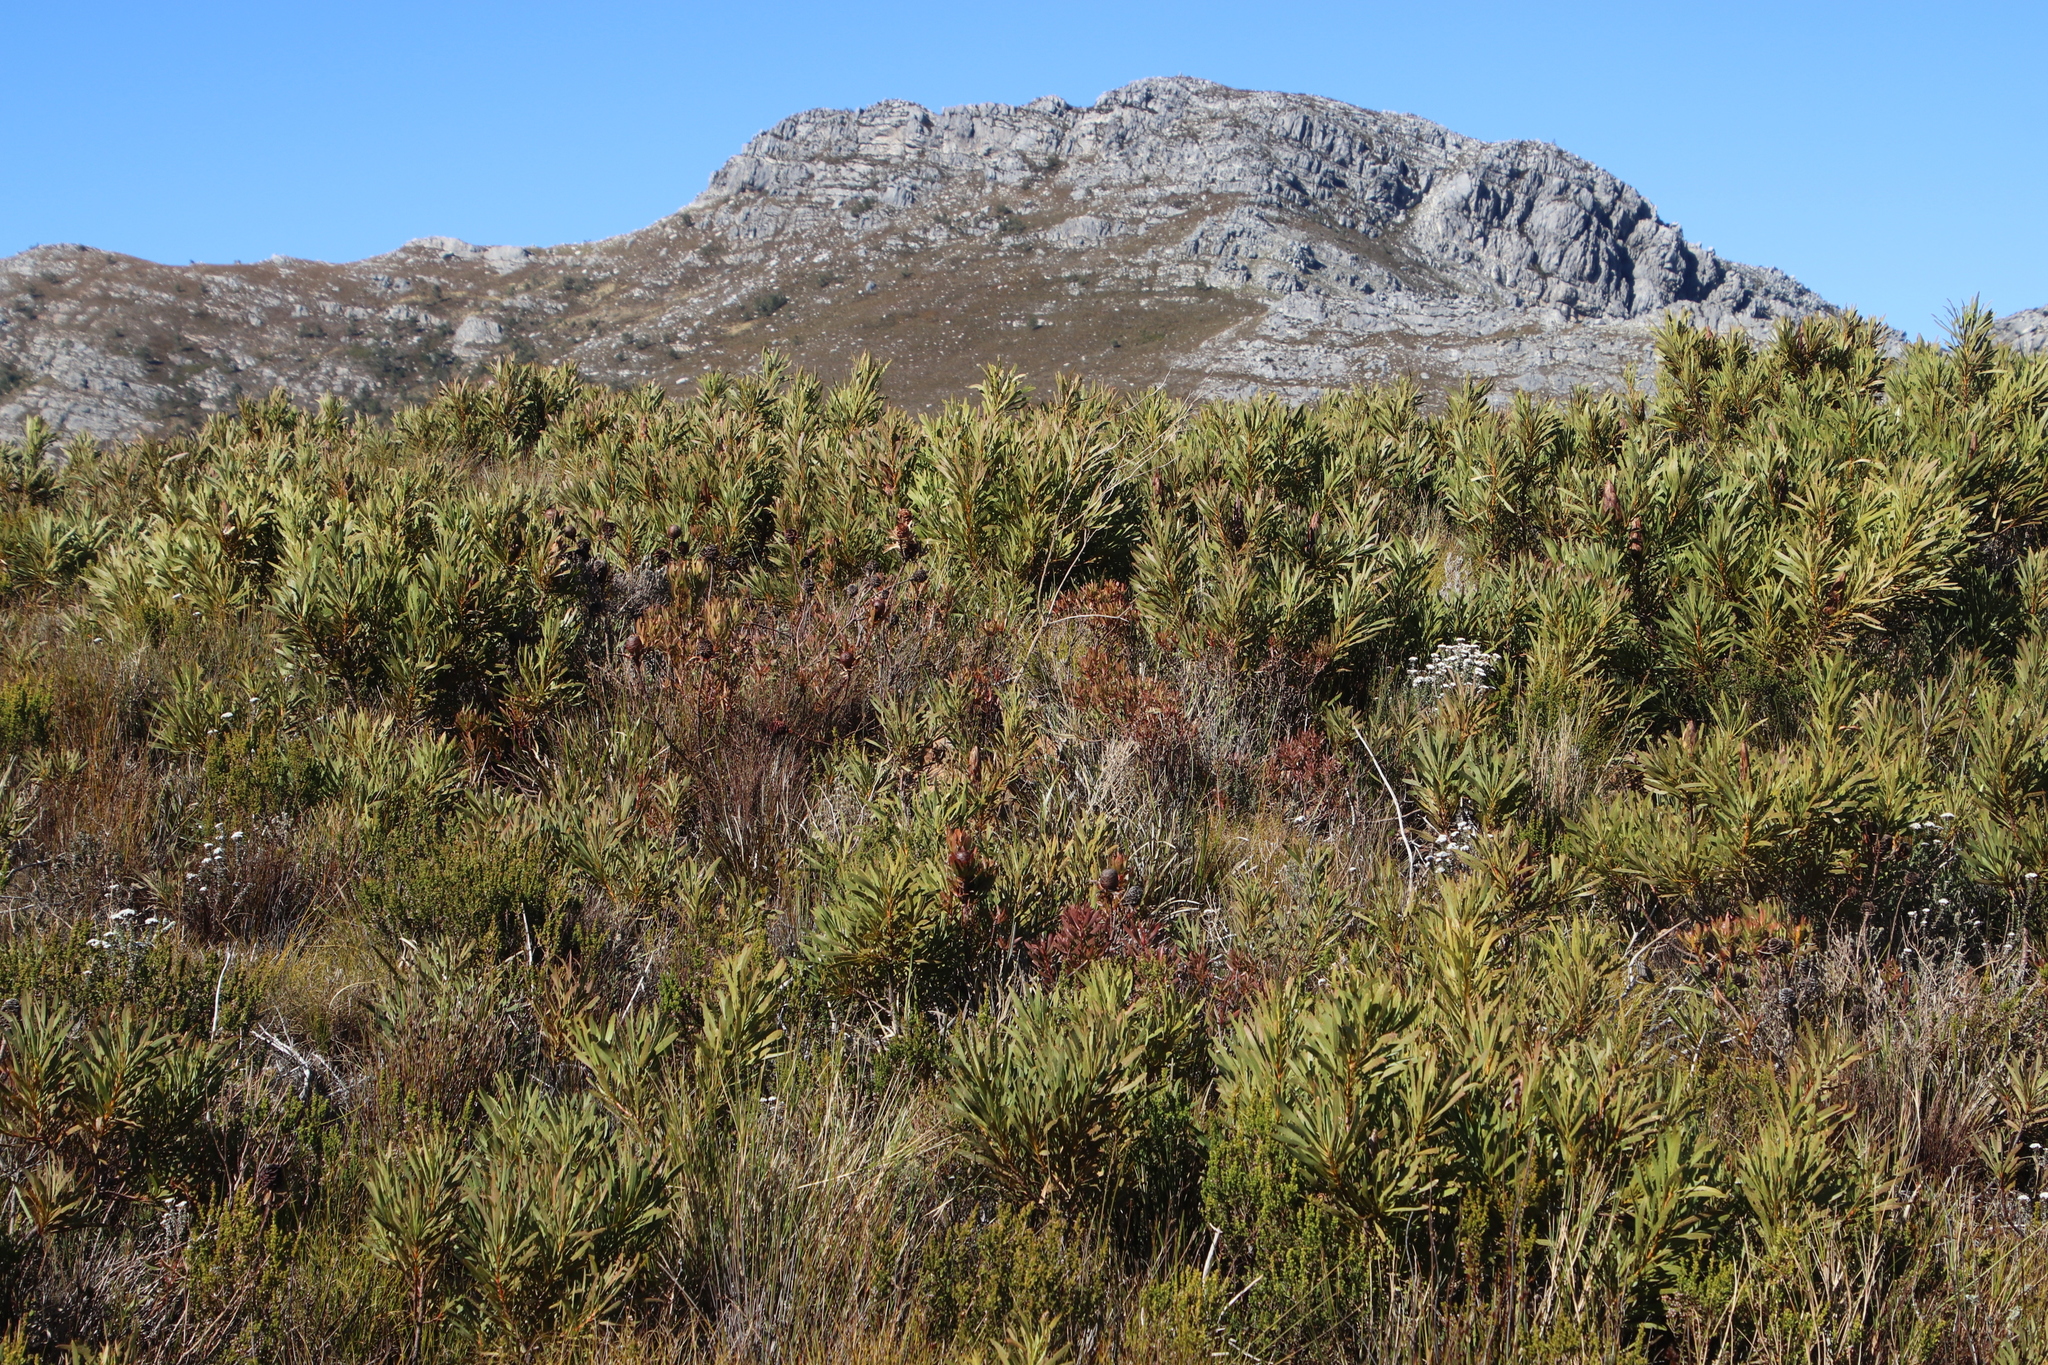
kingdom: Plantae
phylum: Tracheophyta
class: Magnoliopsida
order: Proteales
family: Proteaceae
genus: Protea
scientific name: Protea repens
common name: Sugarbush
